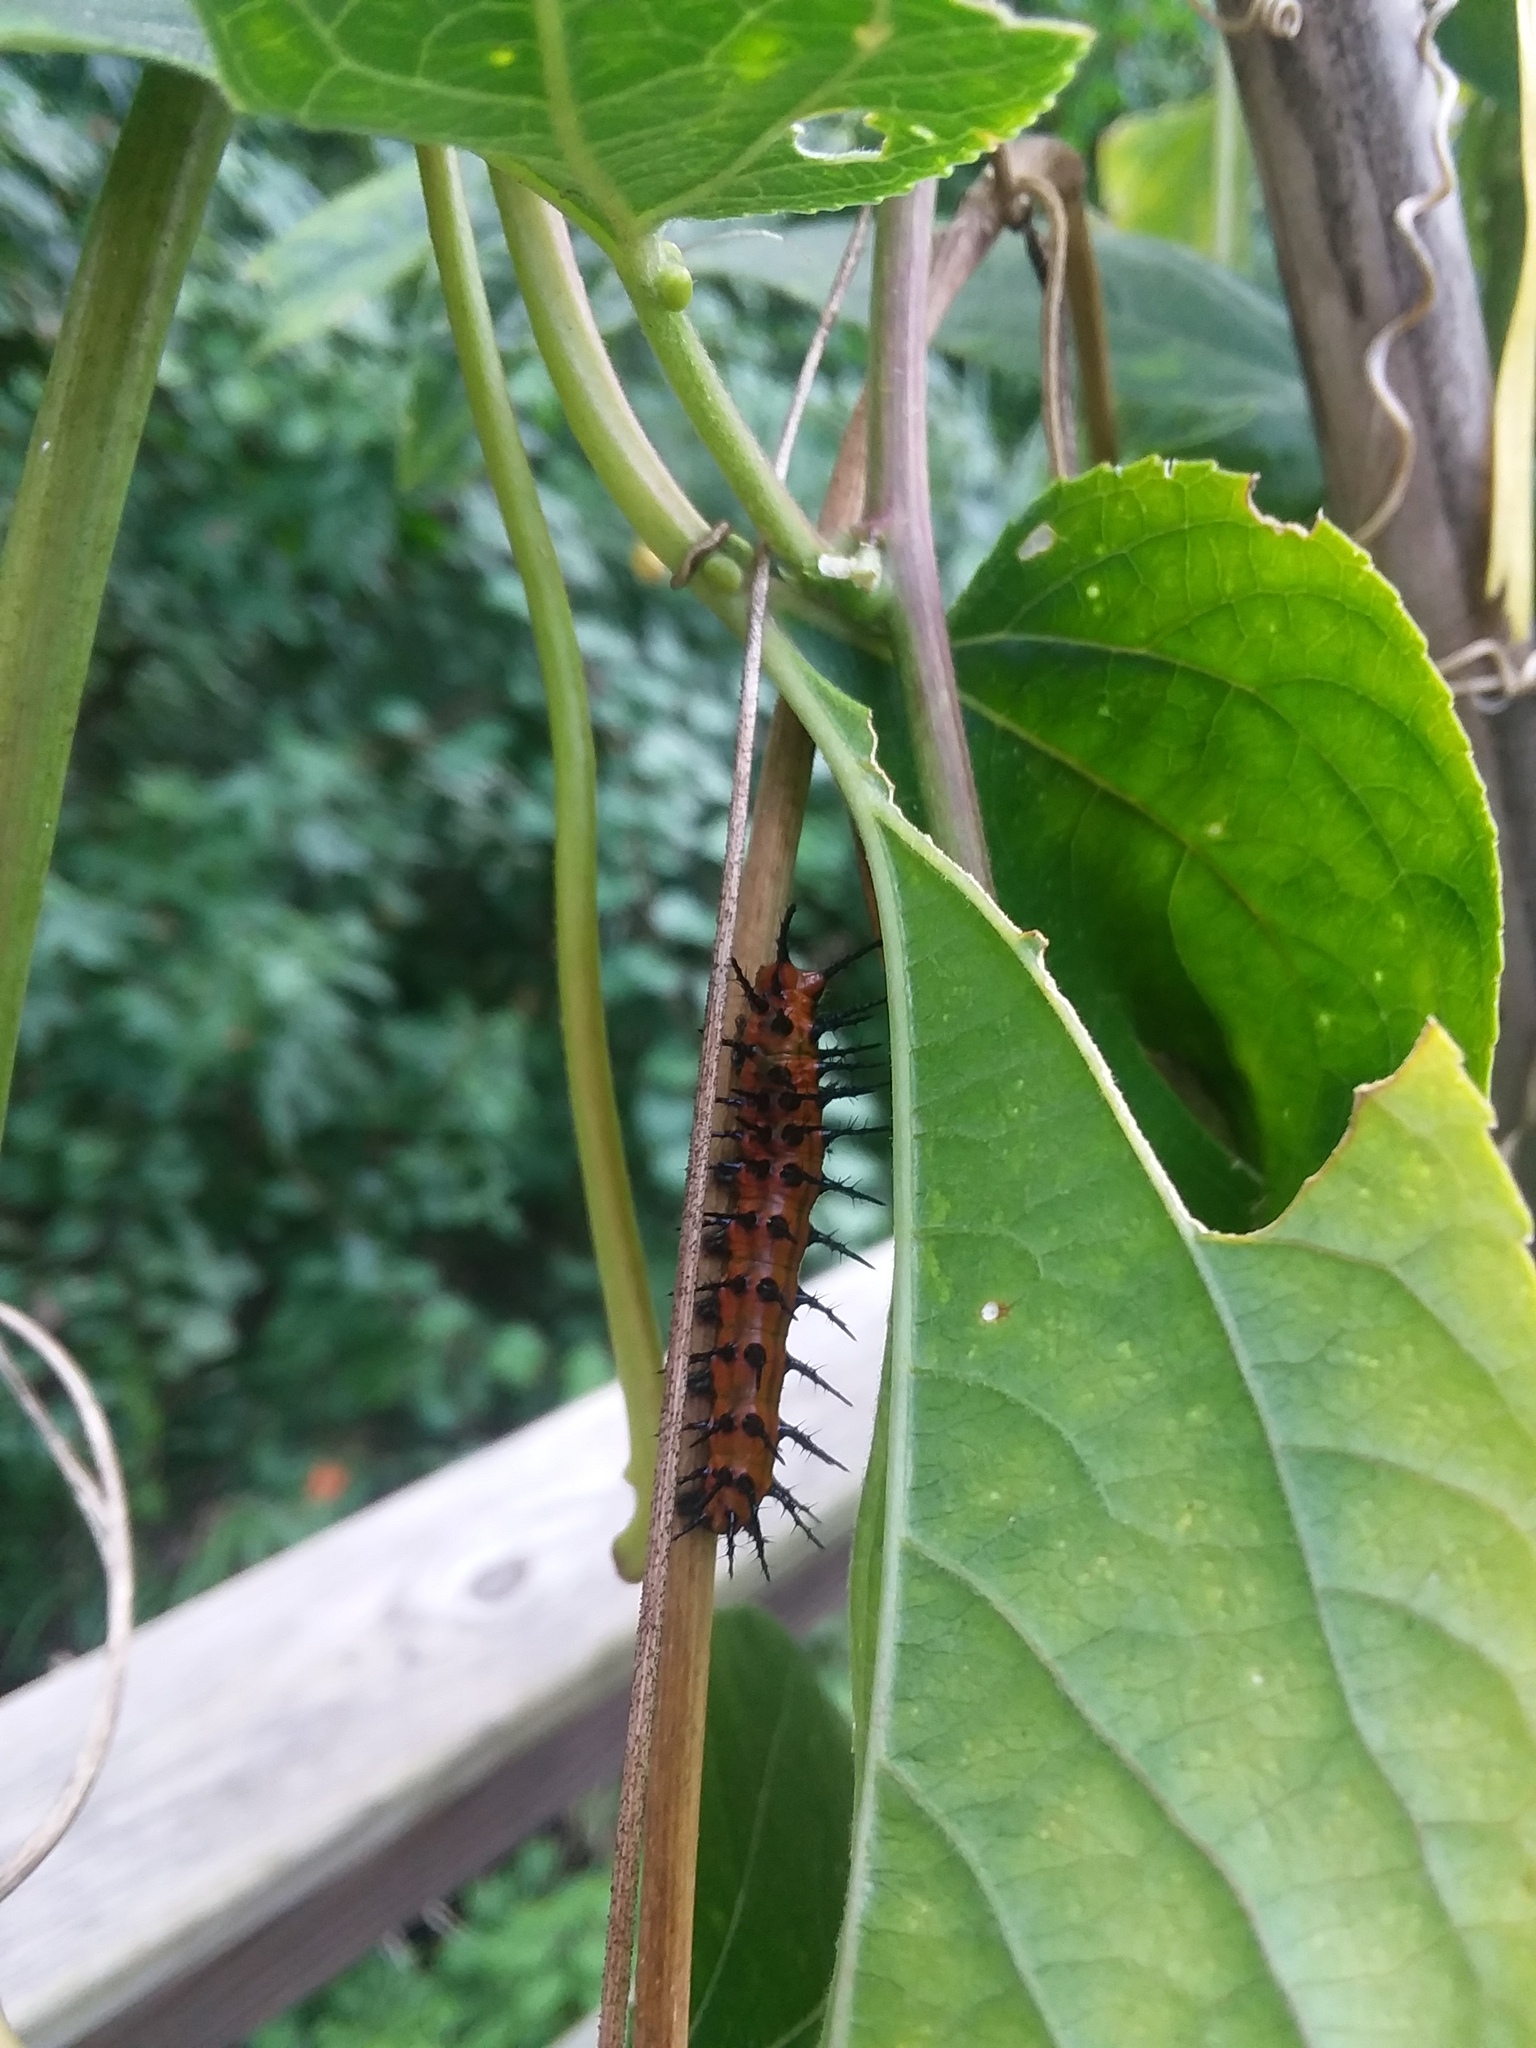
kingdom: Animalia
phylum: Arthropoda
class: Insecta
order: Lepidoptera
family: Nymphalidae
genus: Dione
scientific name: Dione vanillae
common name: Gulf fritillary
